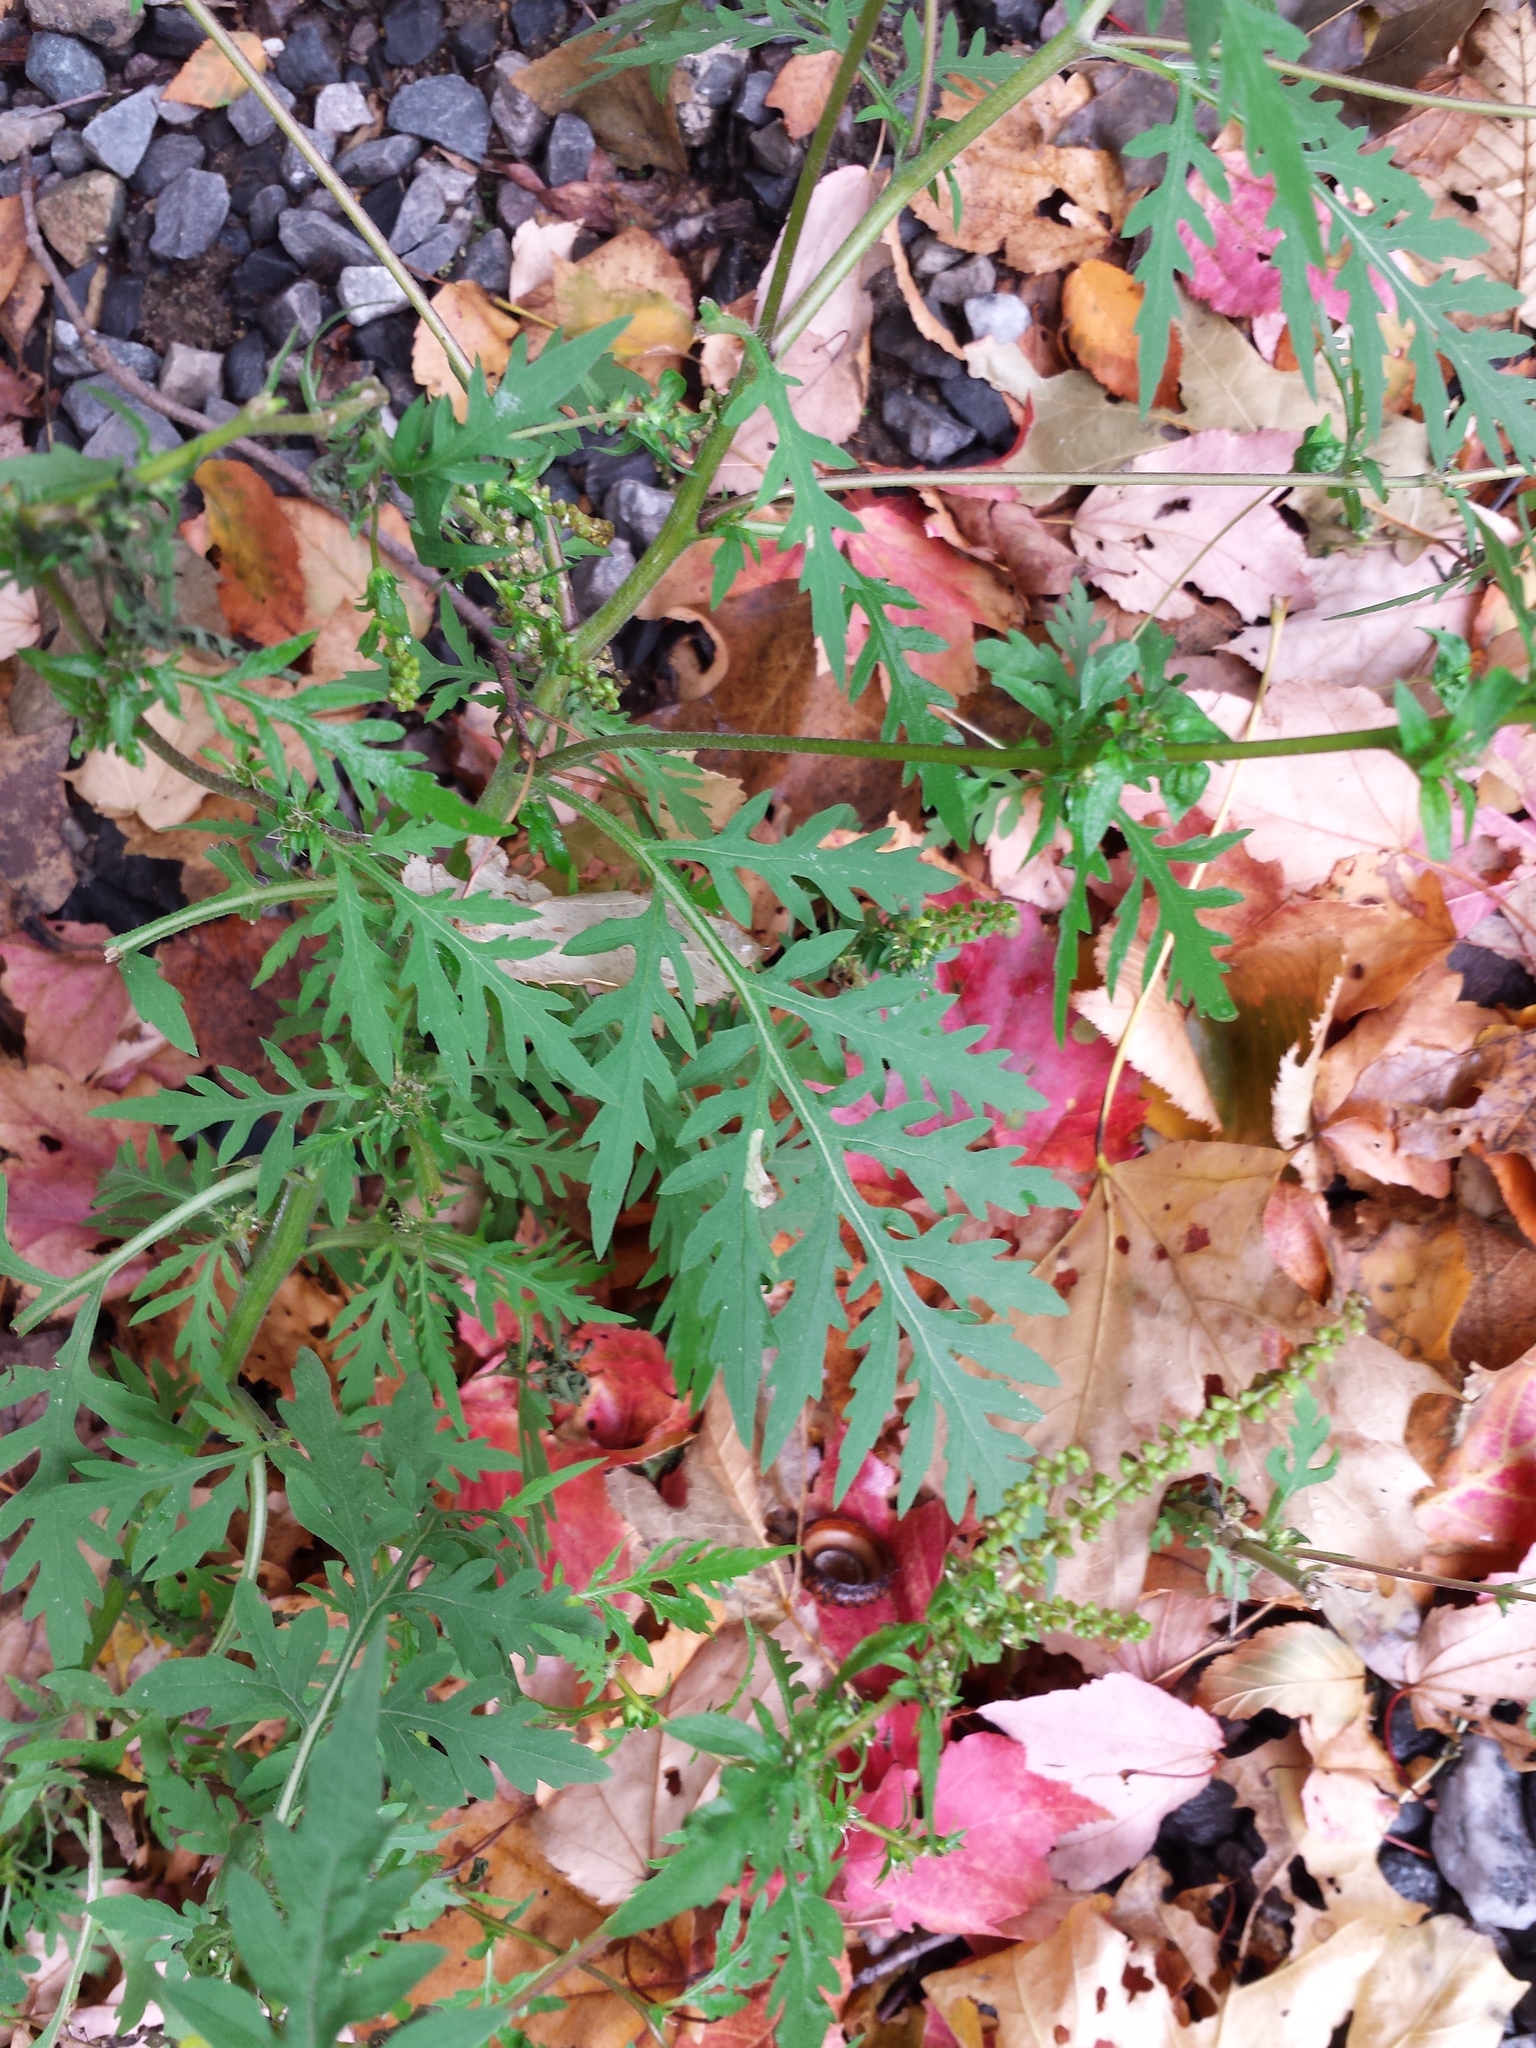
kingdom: Plantae
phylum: Tracheophyta
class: Magnoliopsida
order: Asterales
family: Asteraceae
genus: Ambrosia
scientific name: Ambrosia artemisiifolia
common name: Annual ragweed
